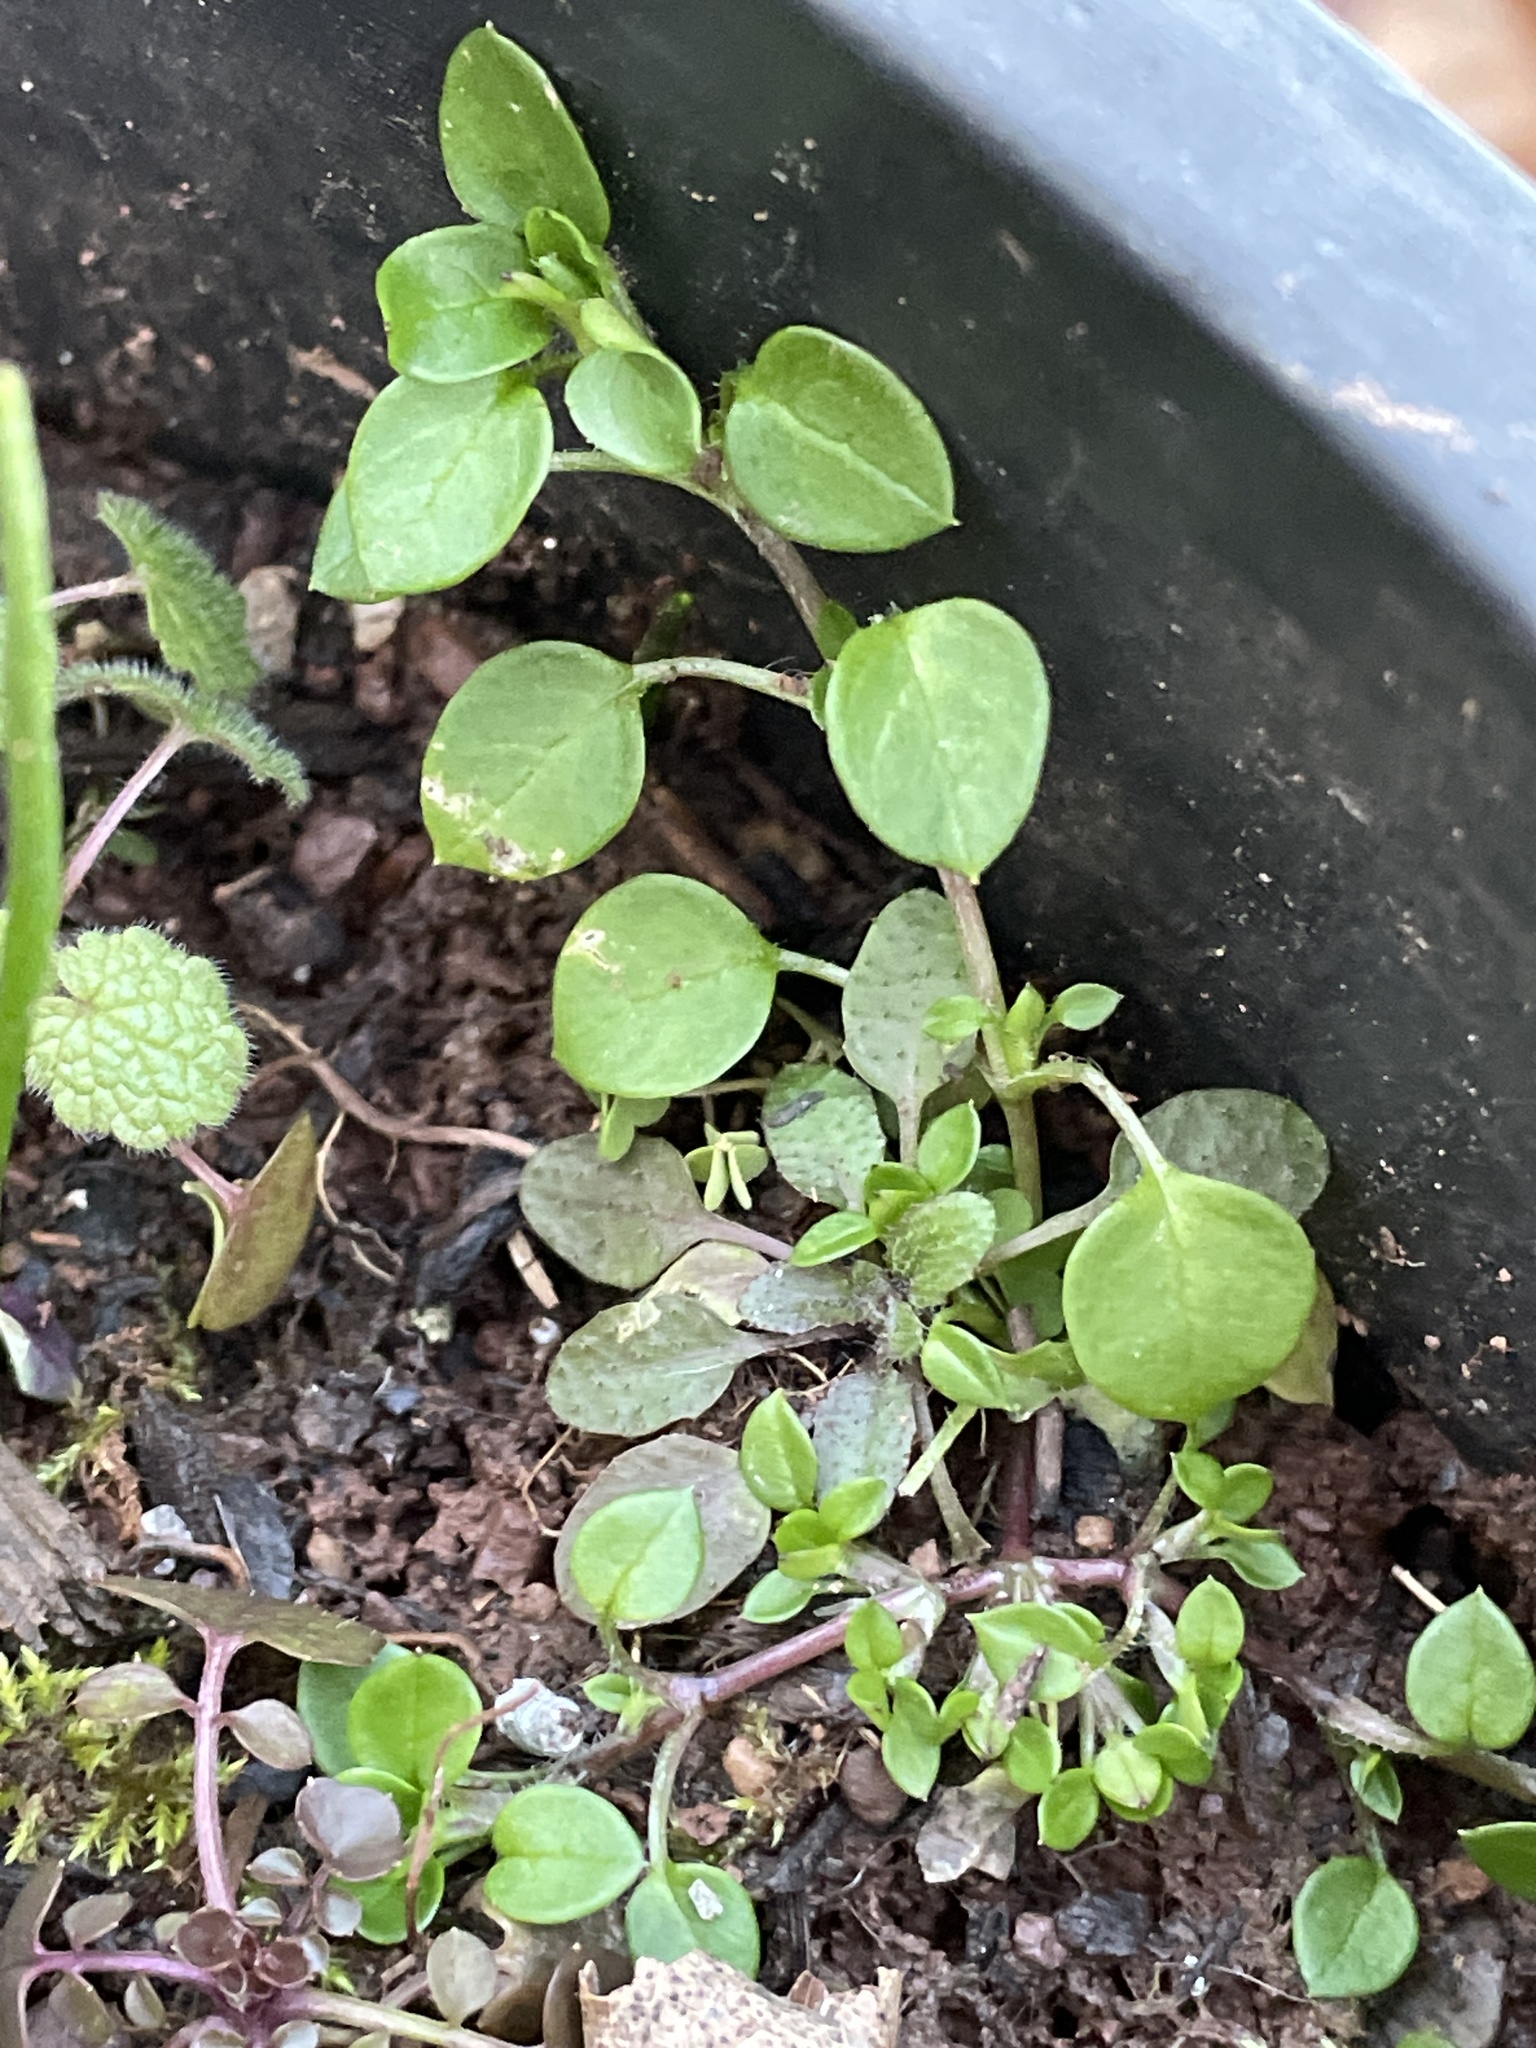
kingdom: Plantae
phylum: Tracheophyta
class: Magnoliopsida
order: Caryophyllales
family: Caryophyllaceae
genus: Stellaria
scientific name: Stellaria media
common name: Common chickweed
